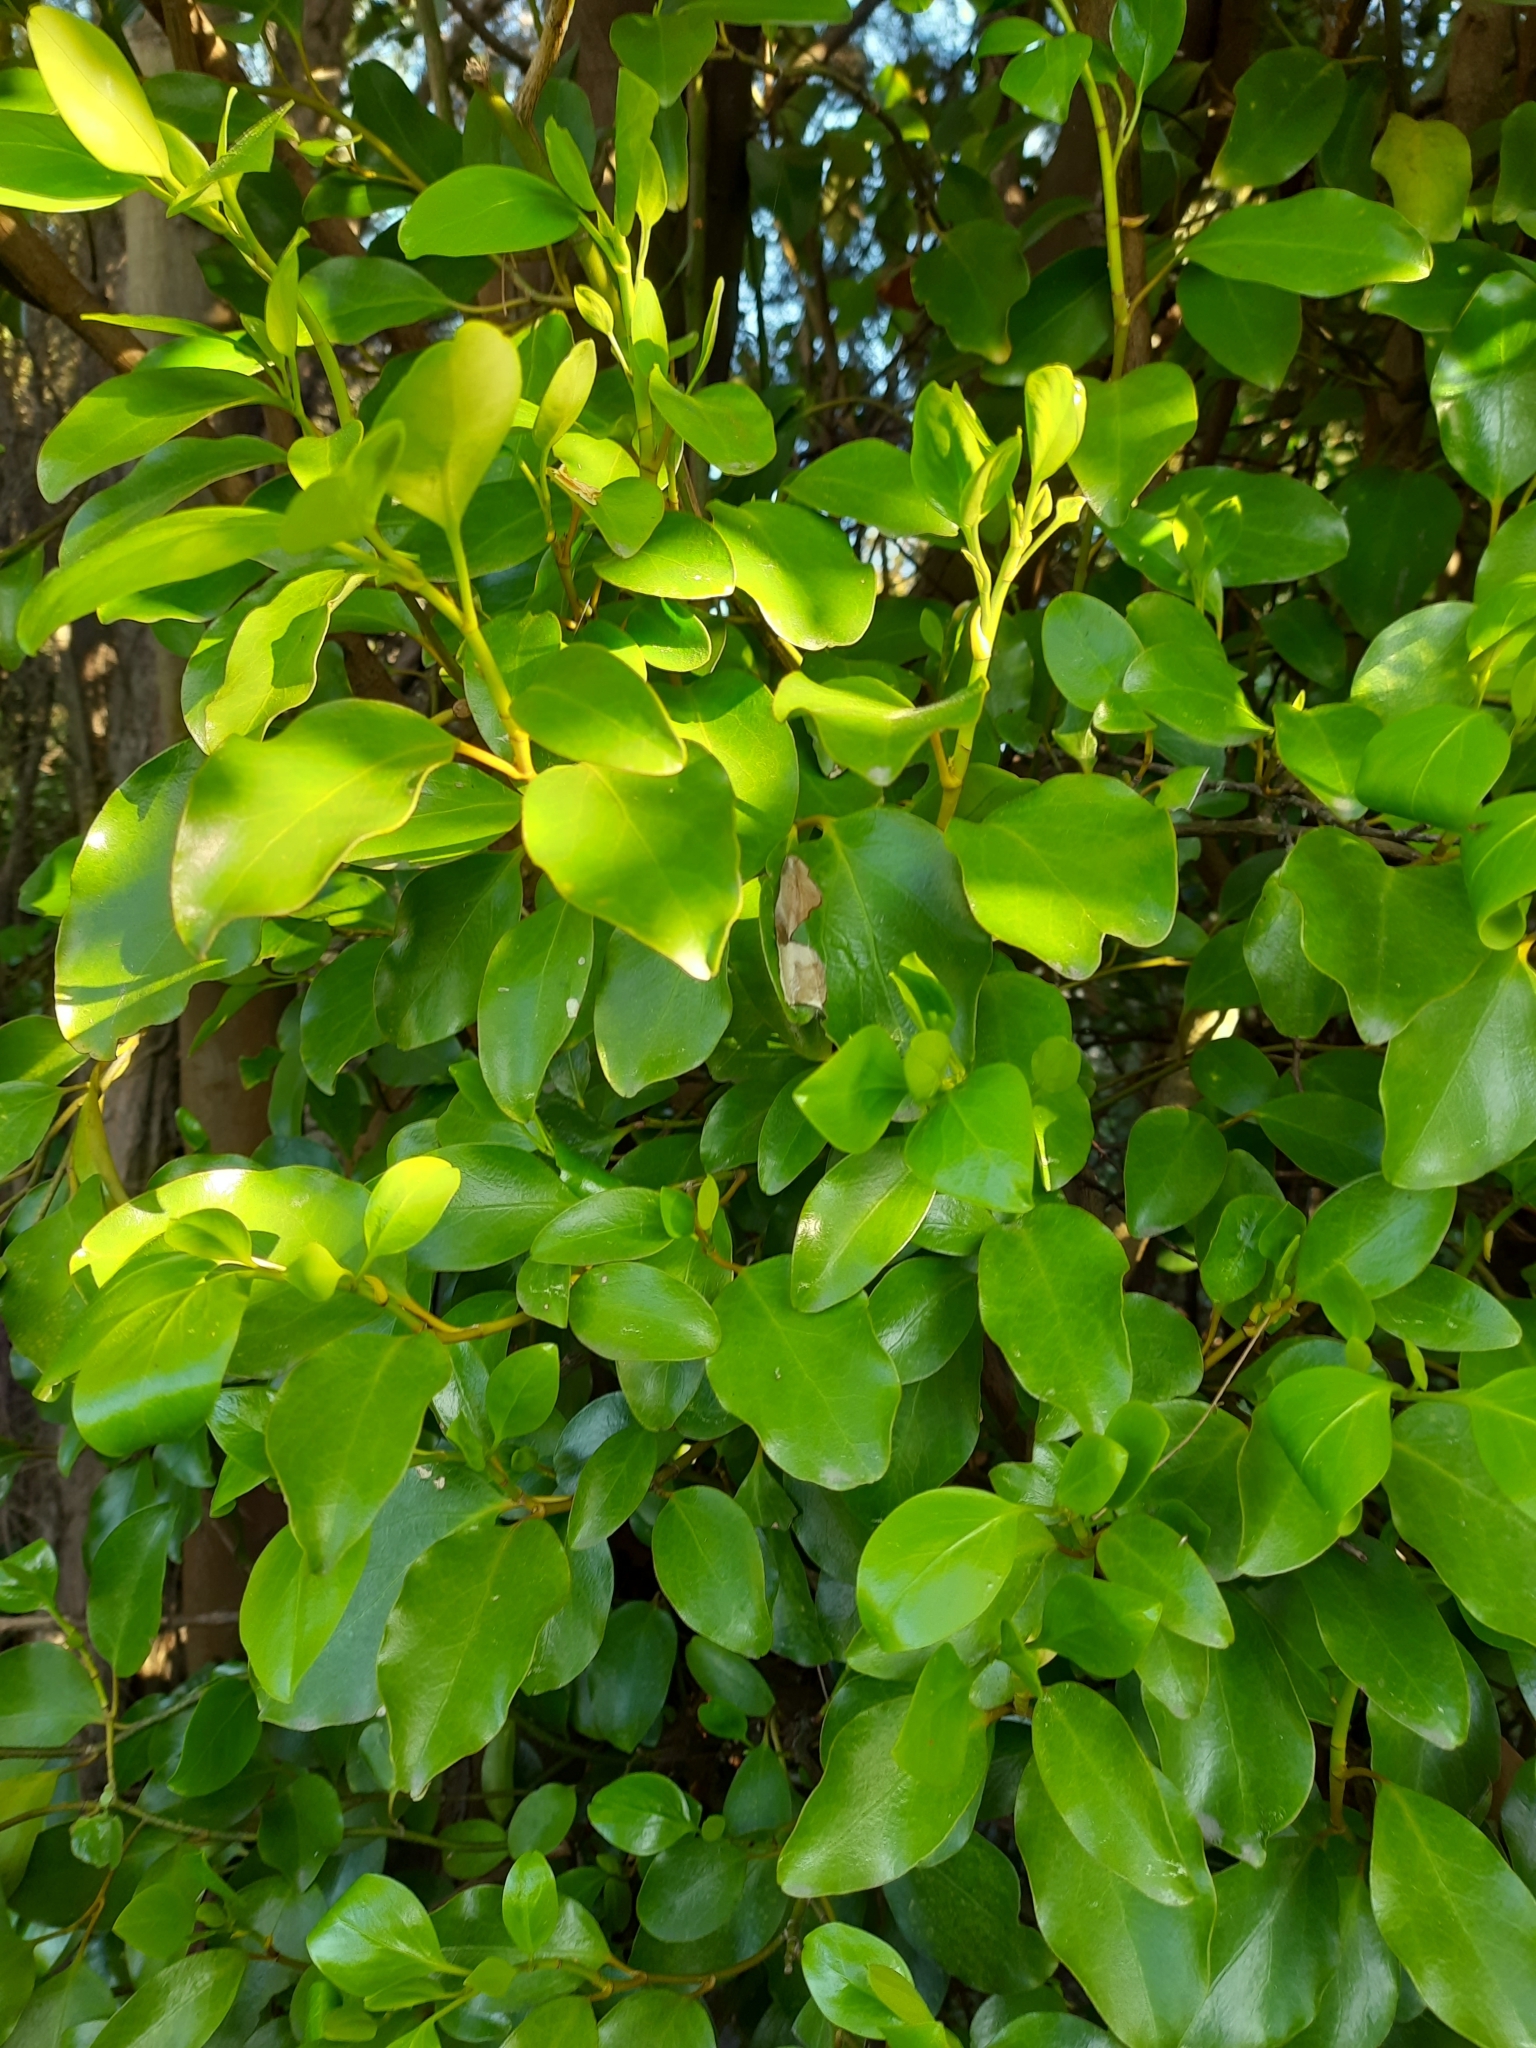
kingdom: Plantae
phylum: Tracheophyta
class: Magnoliopsida
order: Apiales
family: Griseliniaceae
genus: Griselinia
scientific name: Griselinia littoralis
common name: New zealand broadleaf
